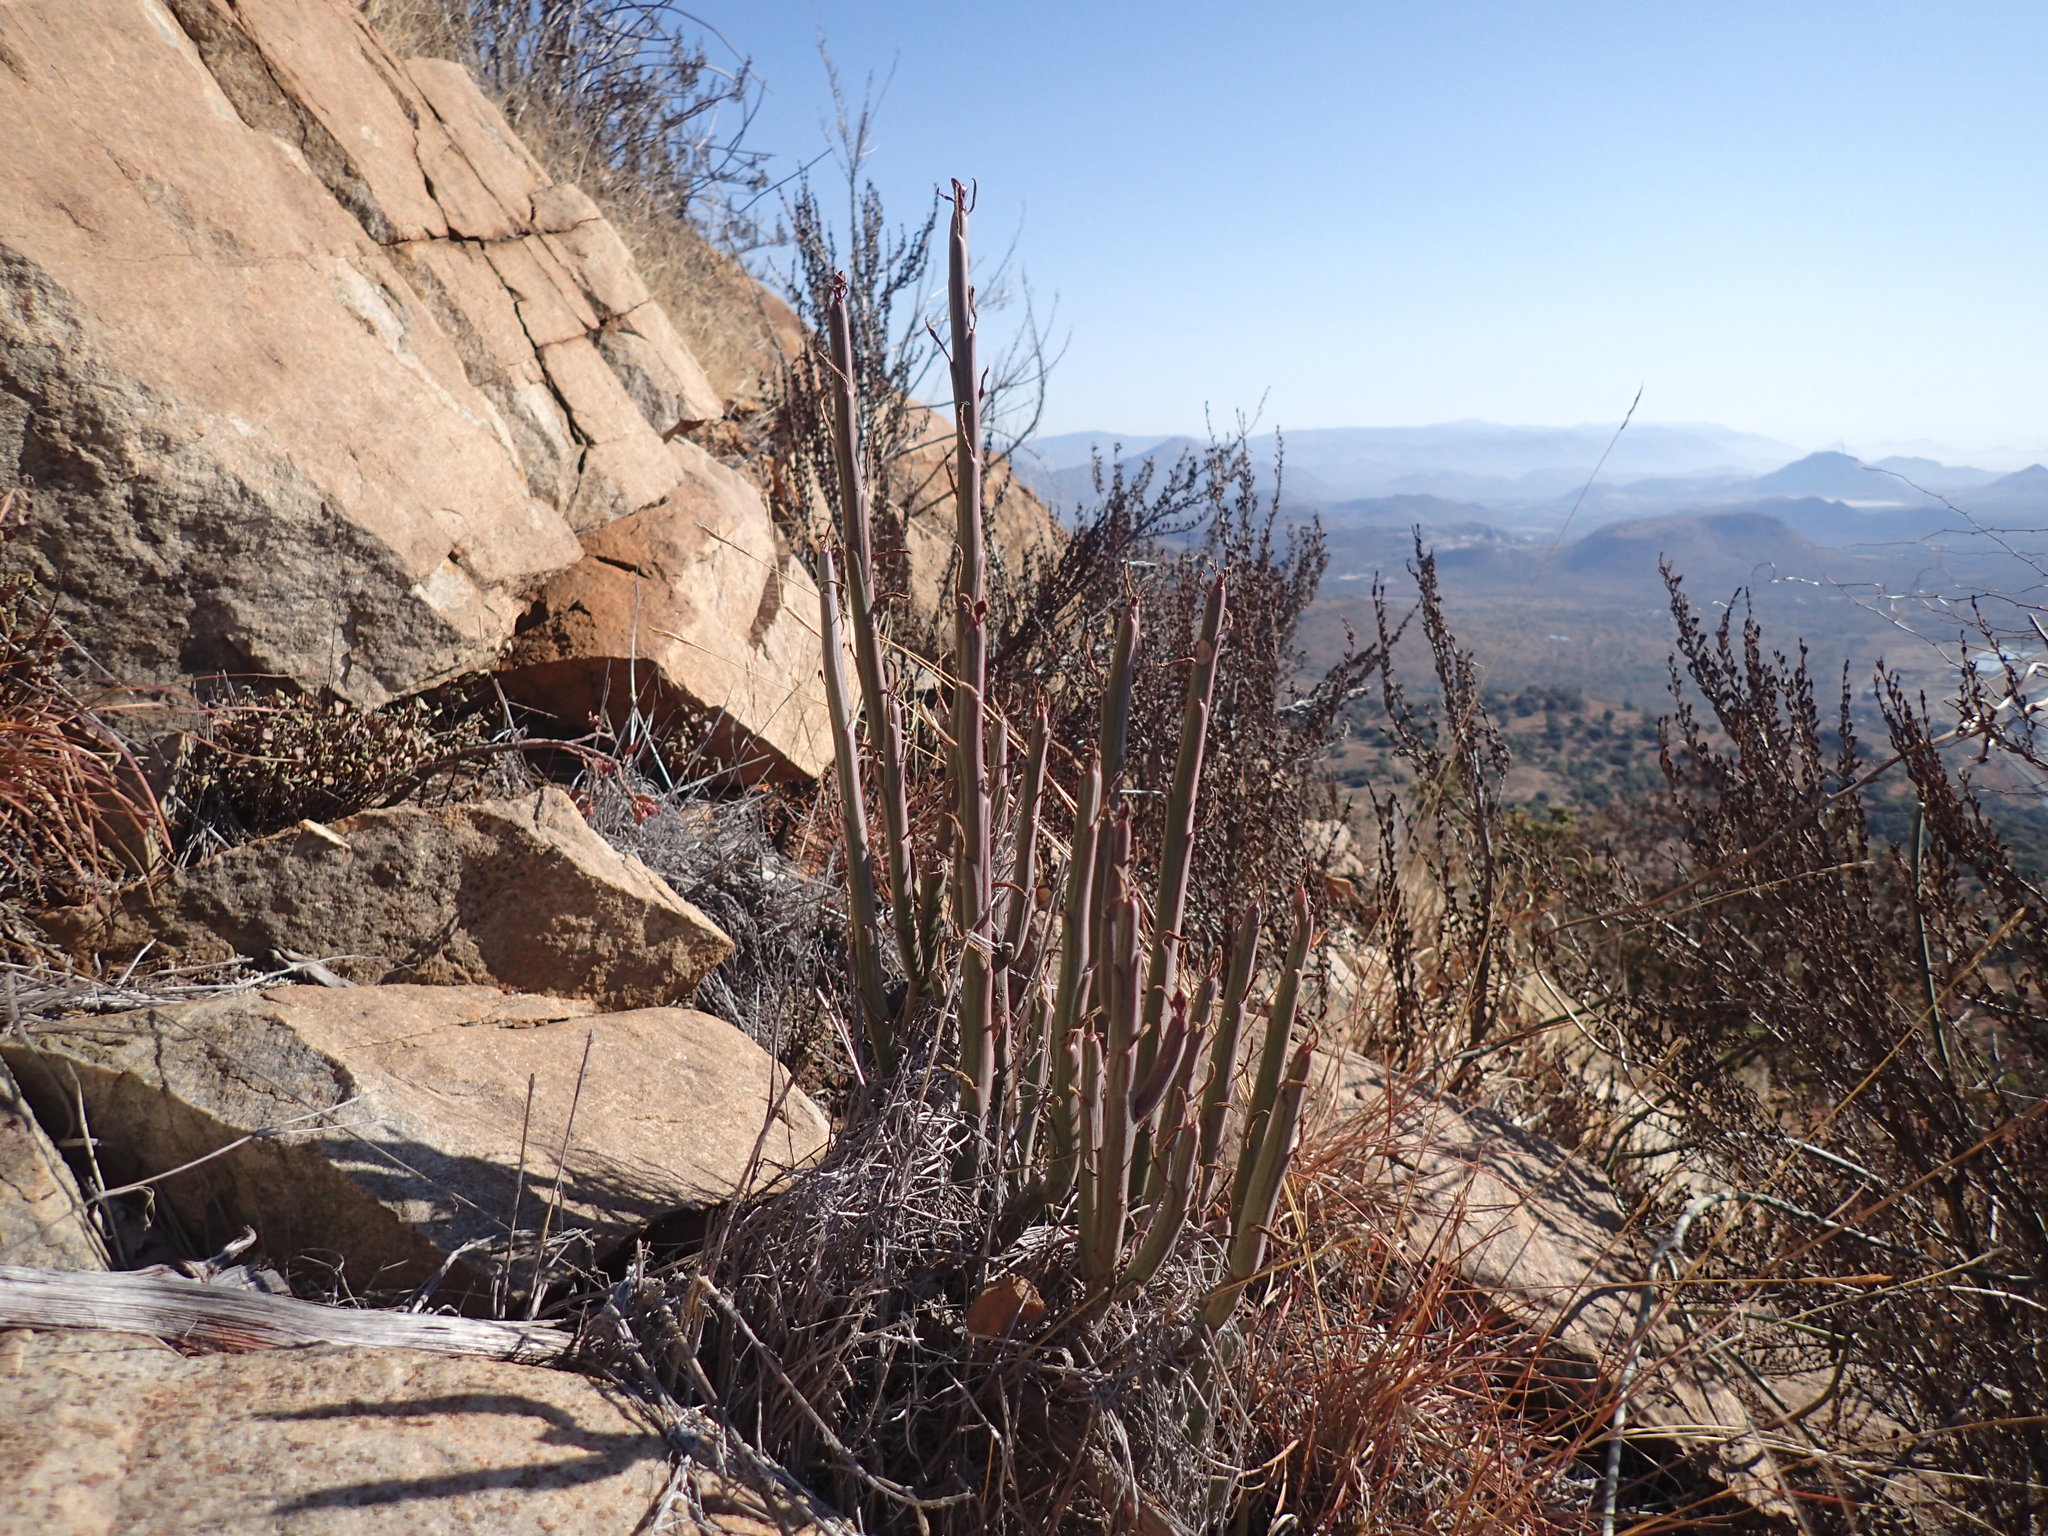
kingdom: Plantae
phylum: Tracheophyta
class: Magnoliopsida
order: Asterales
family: Asteraceae
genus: Curio
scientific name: Curio avasimontanus
